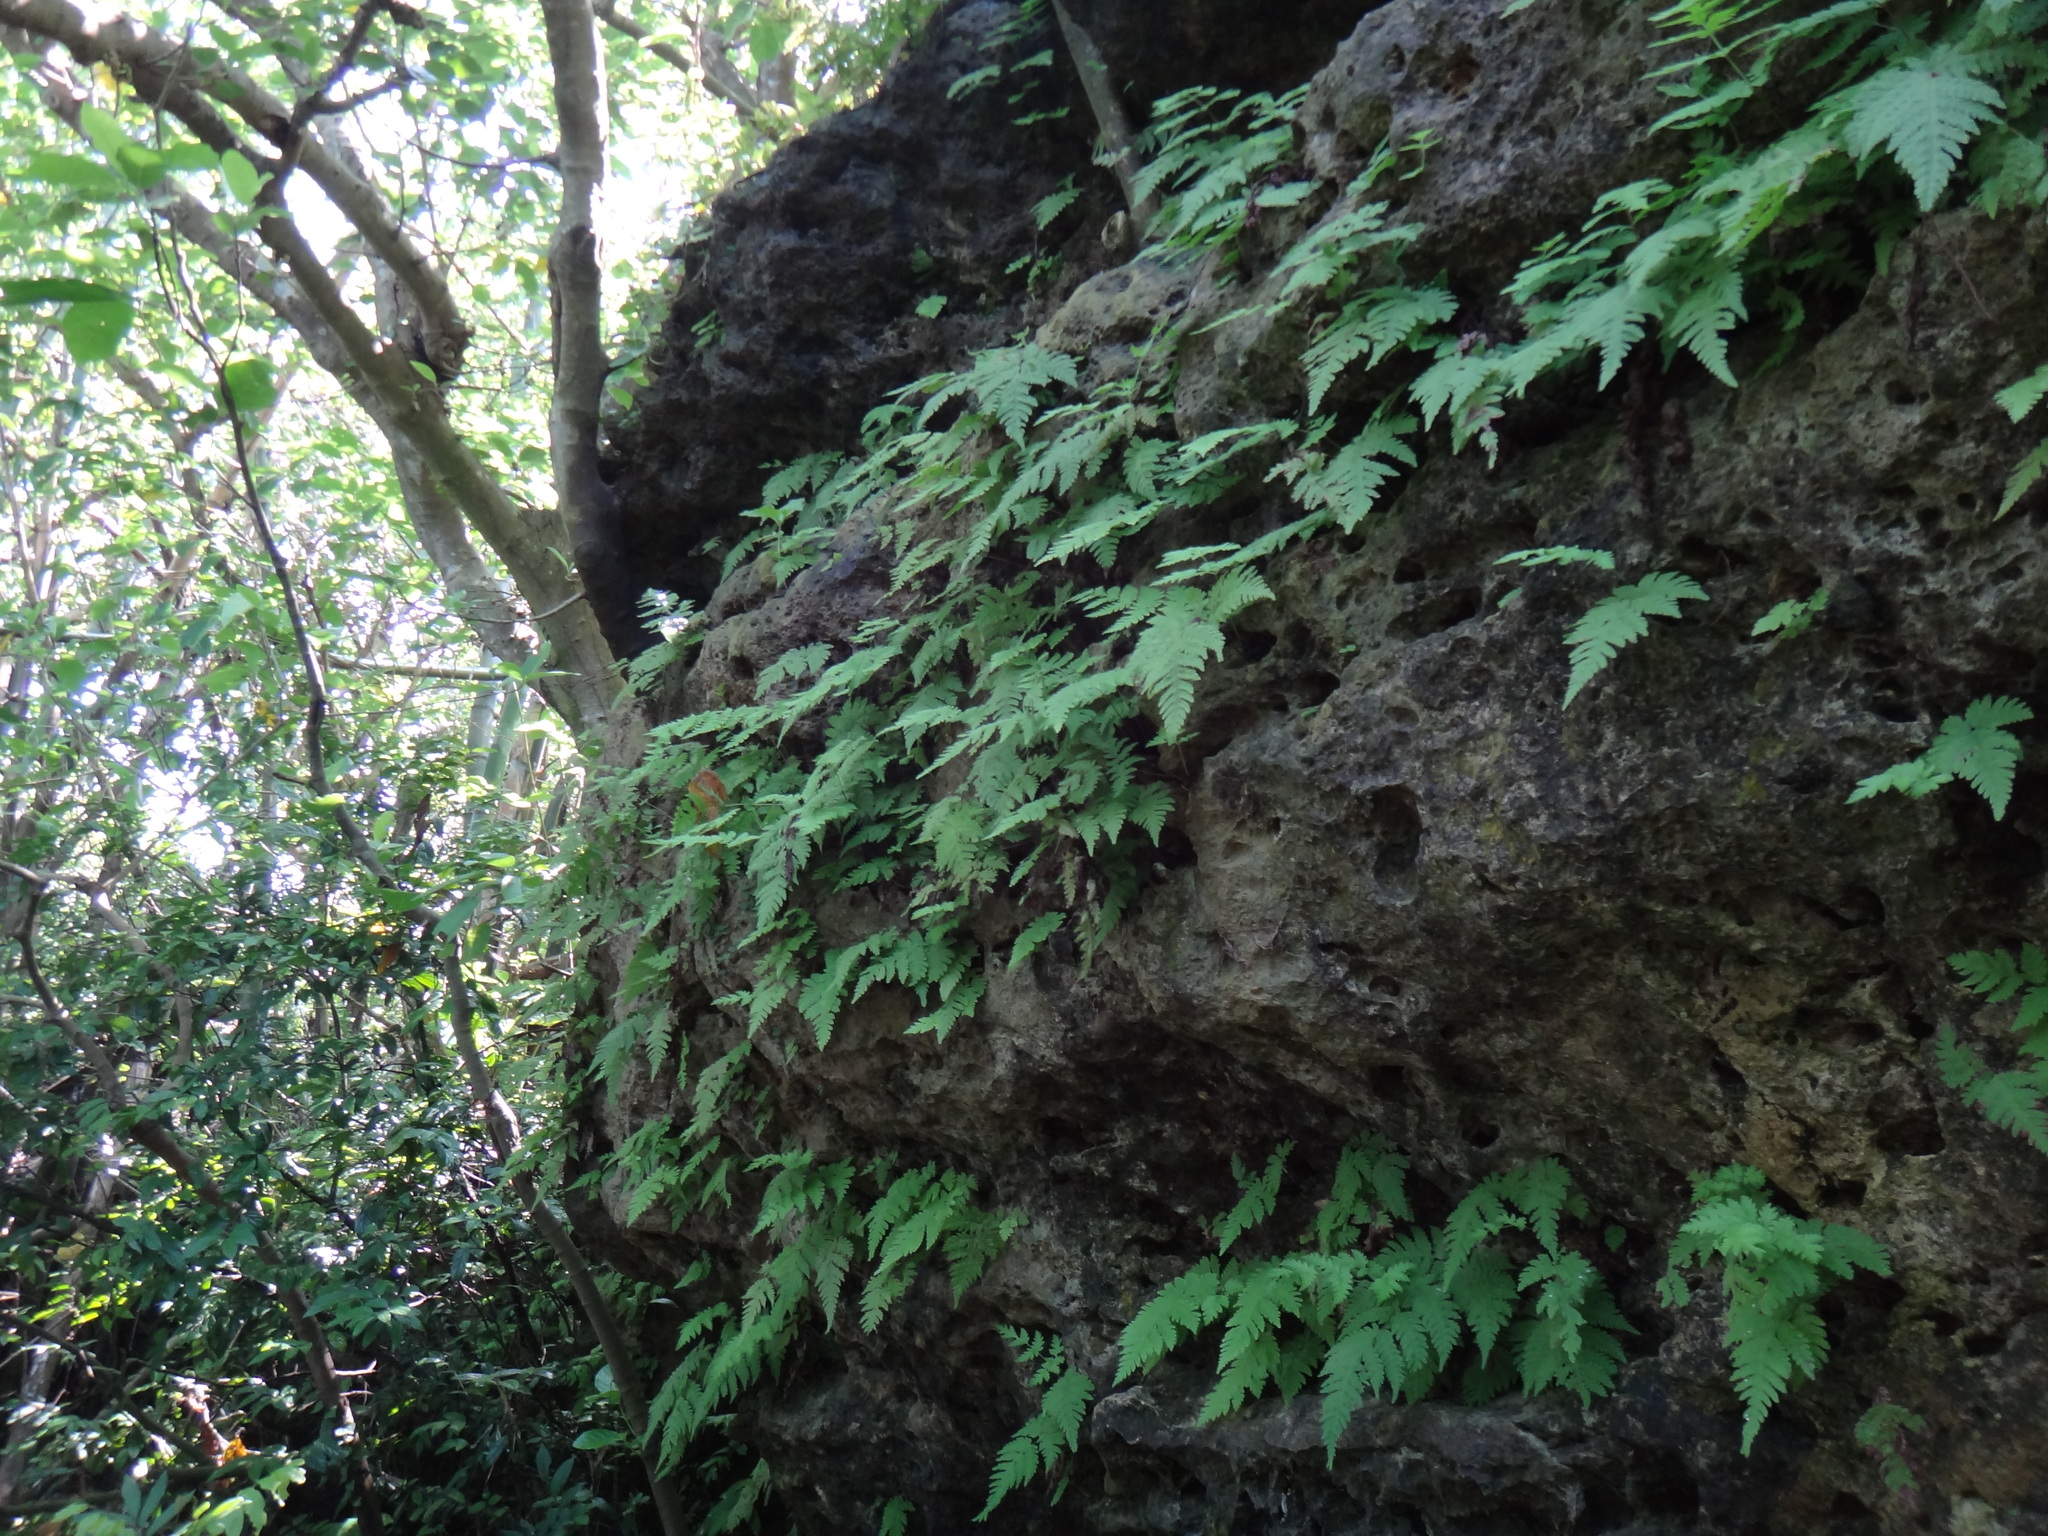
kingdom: Plantae
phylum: Tracheophyta
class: Polypodiopsida
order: Polypodiales
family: Tectariaceae
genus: Tectaria
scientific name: Tectaria membranacea
